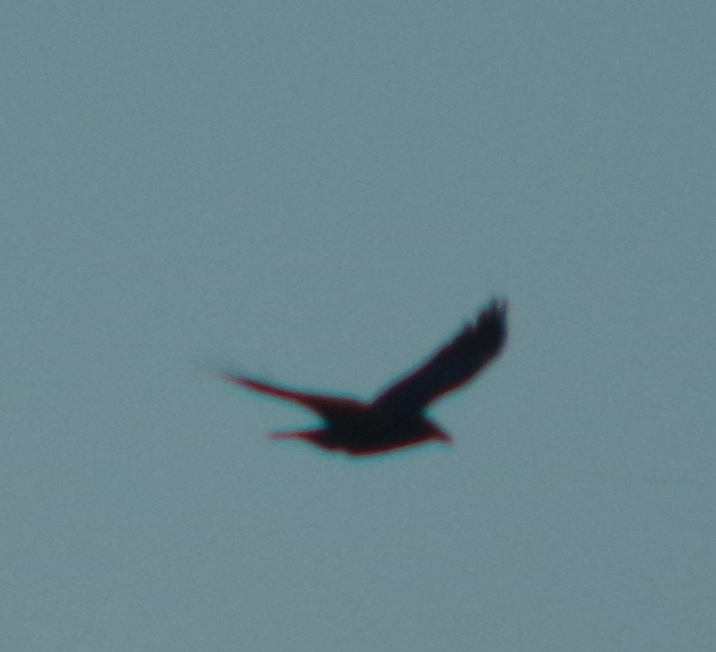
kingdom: Animalia
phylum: Chordata
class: Aves
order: Passeriformes
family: Corvidae
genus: Corvus
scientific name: Corvus corax
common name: Common raven
